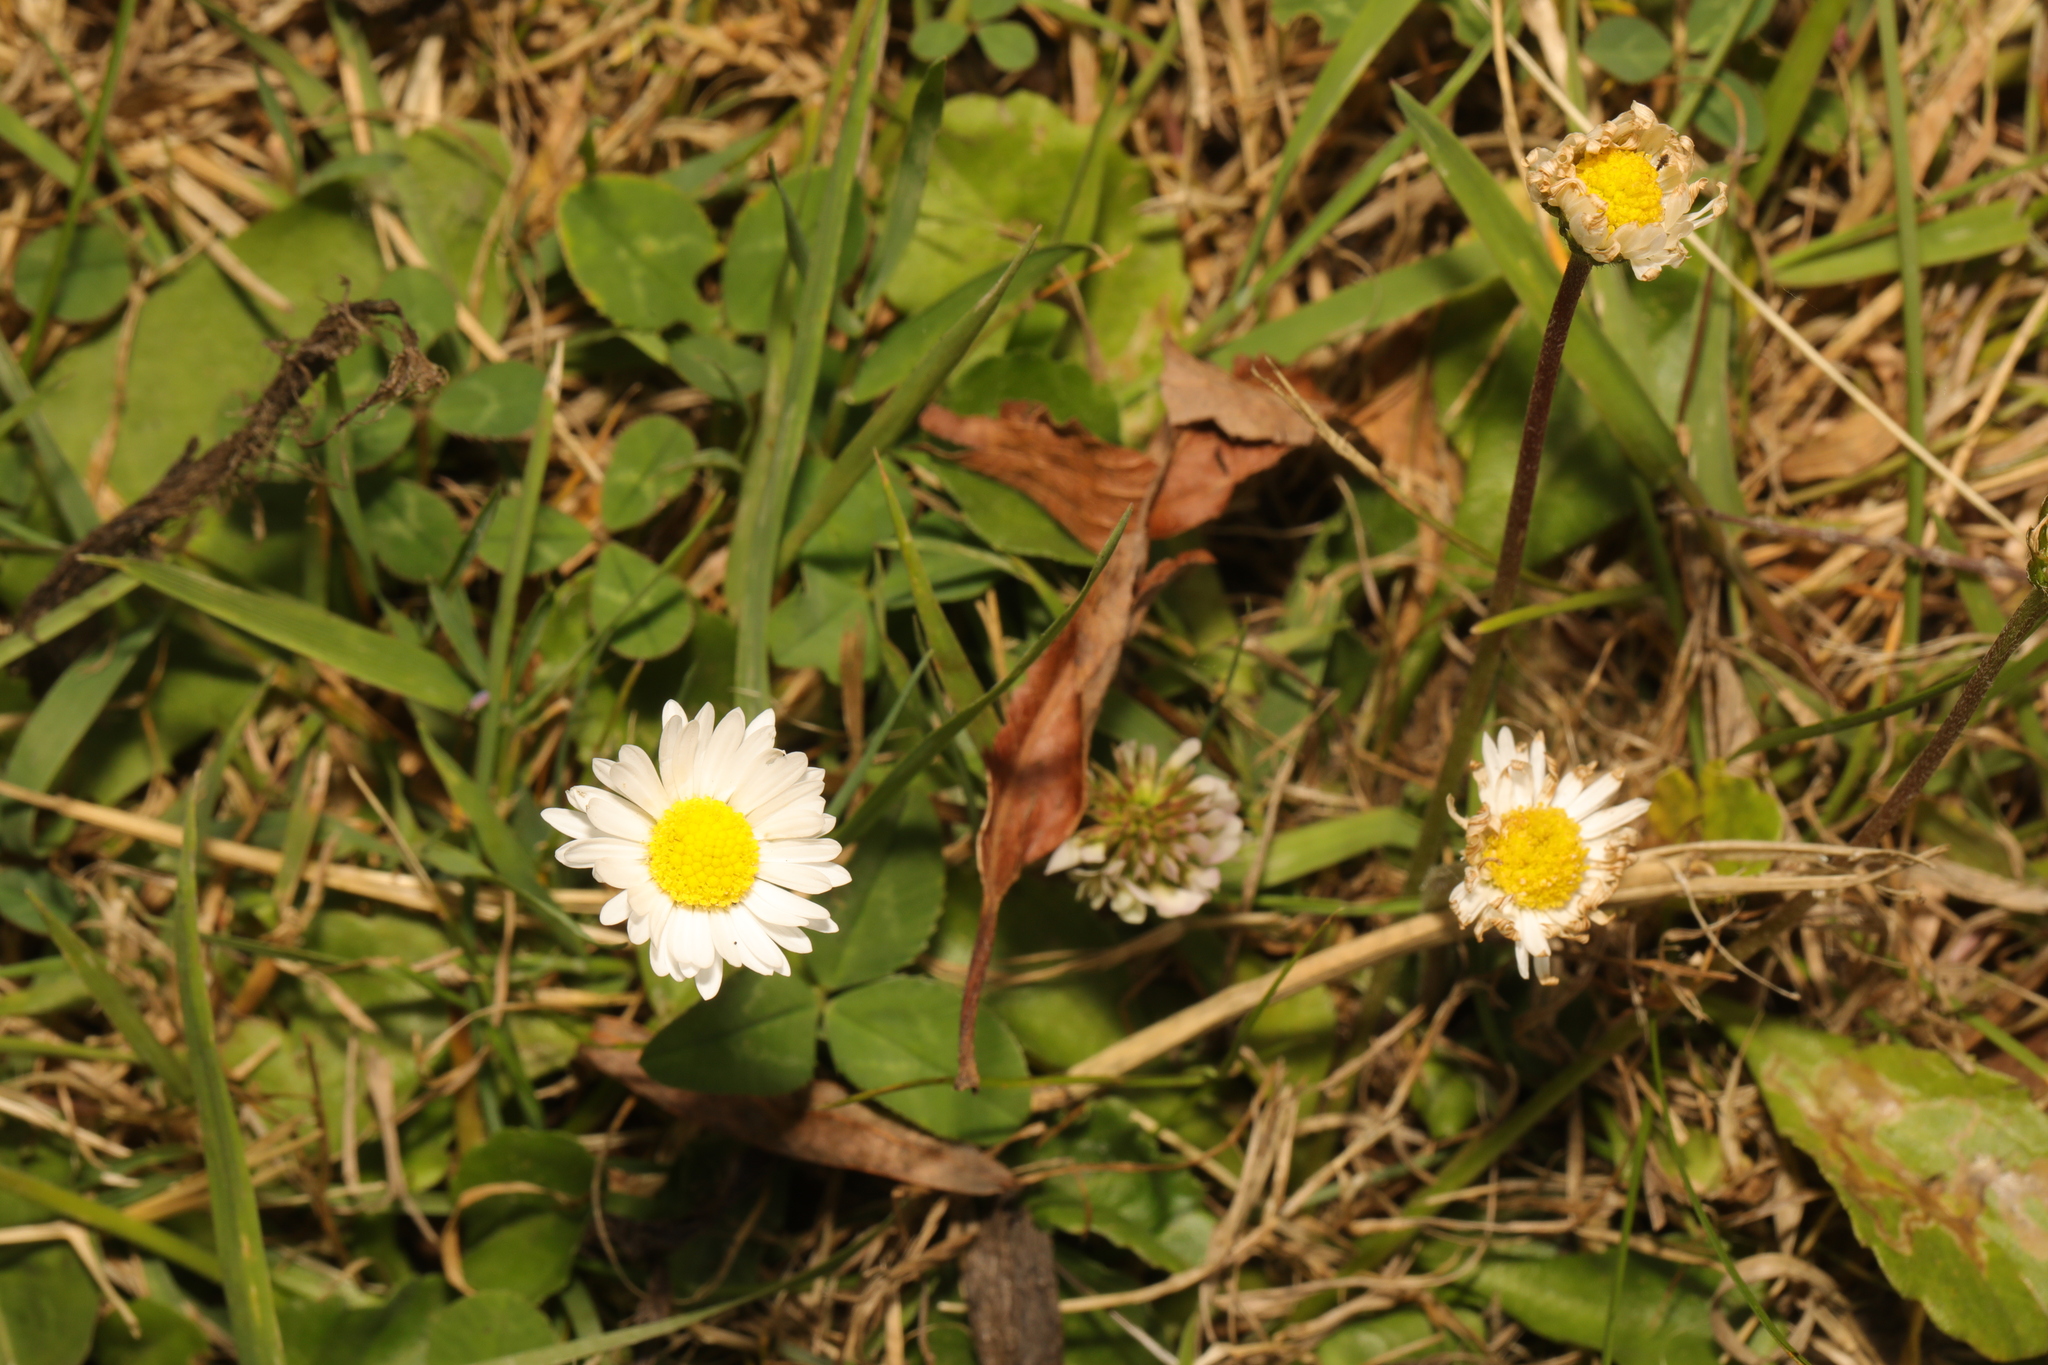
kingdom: Plantae
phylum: Tracheophyta
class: Magnoliopsida
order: Asterales
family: Asteraceae
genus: Bellis
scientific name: Bellis perennis
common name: Lawndaisy
